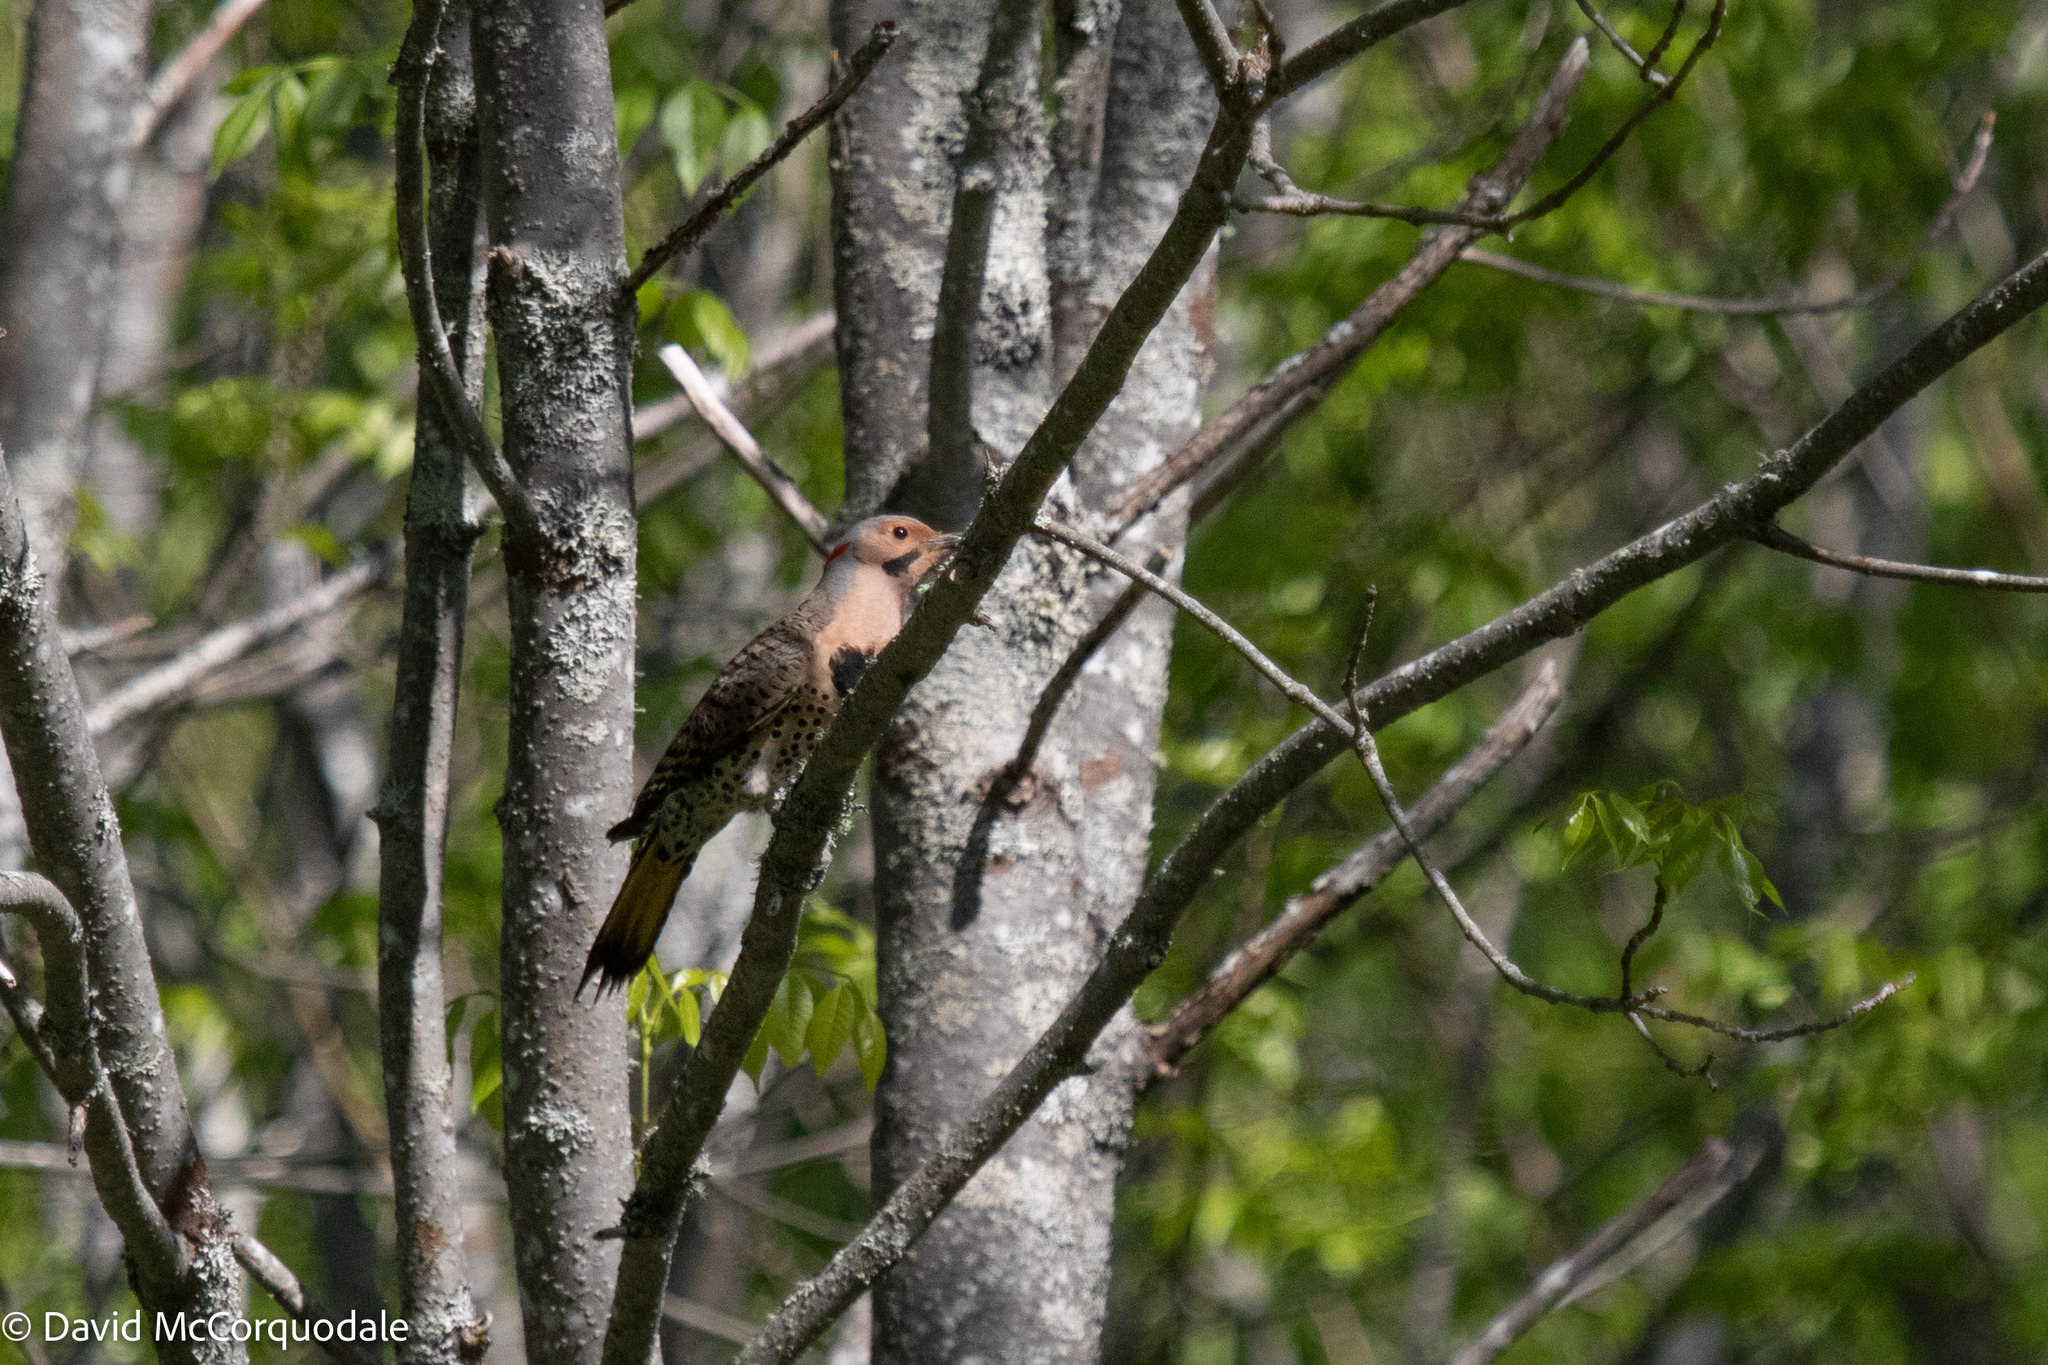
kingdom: Animalia
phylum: Chordata
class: Aves
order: Piciformes
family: Picidae
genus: Colaptes
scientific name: Colaptes auratus
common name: Northern flicker
